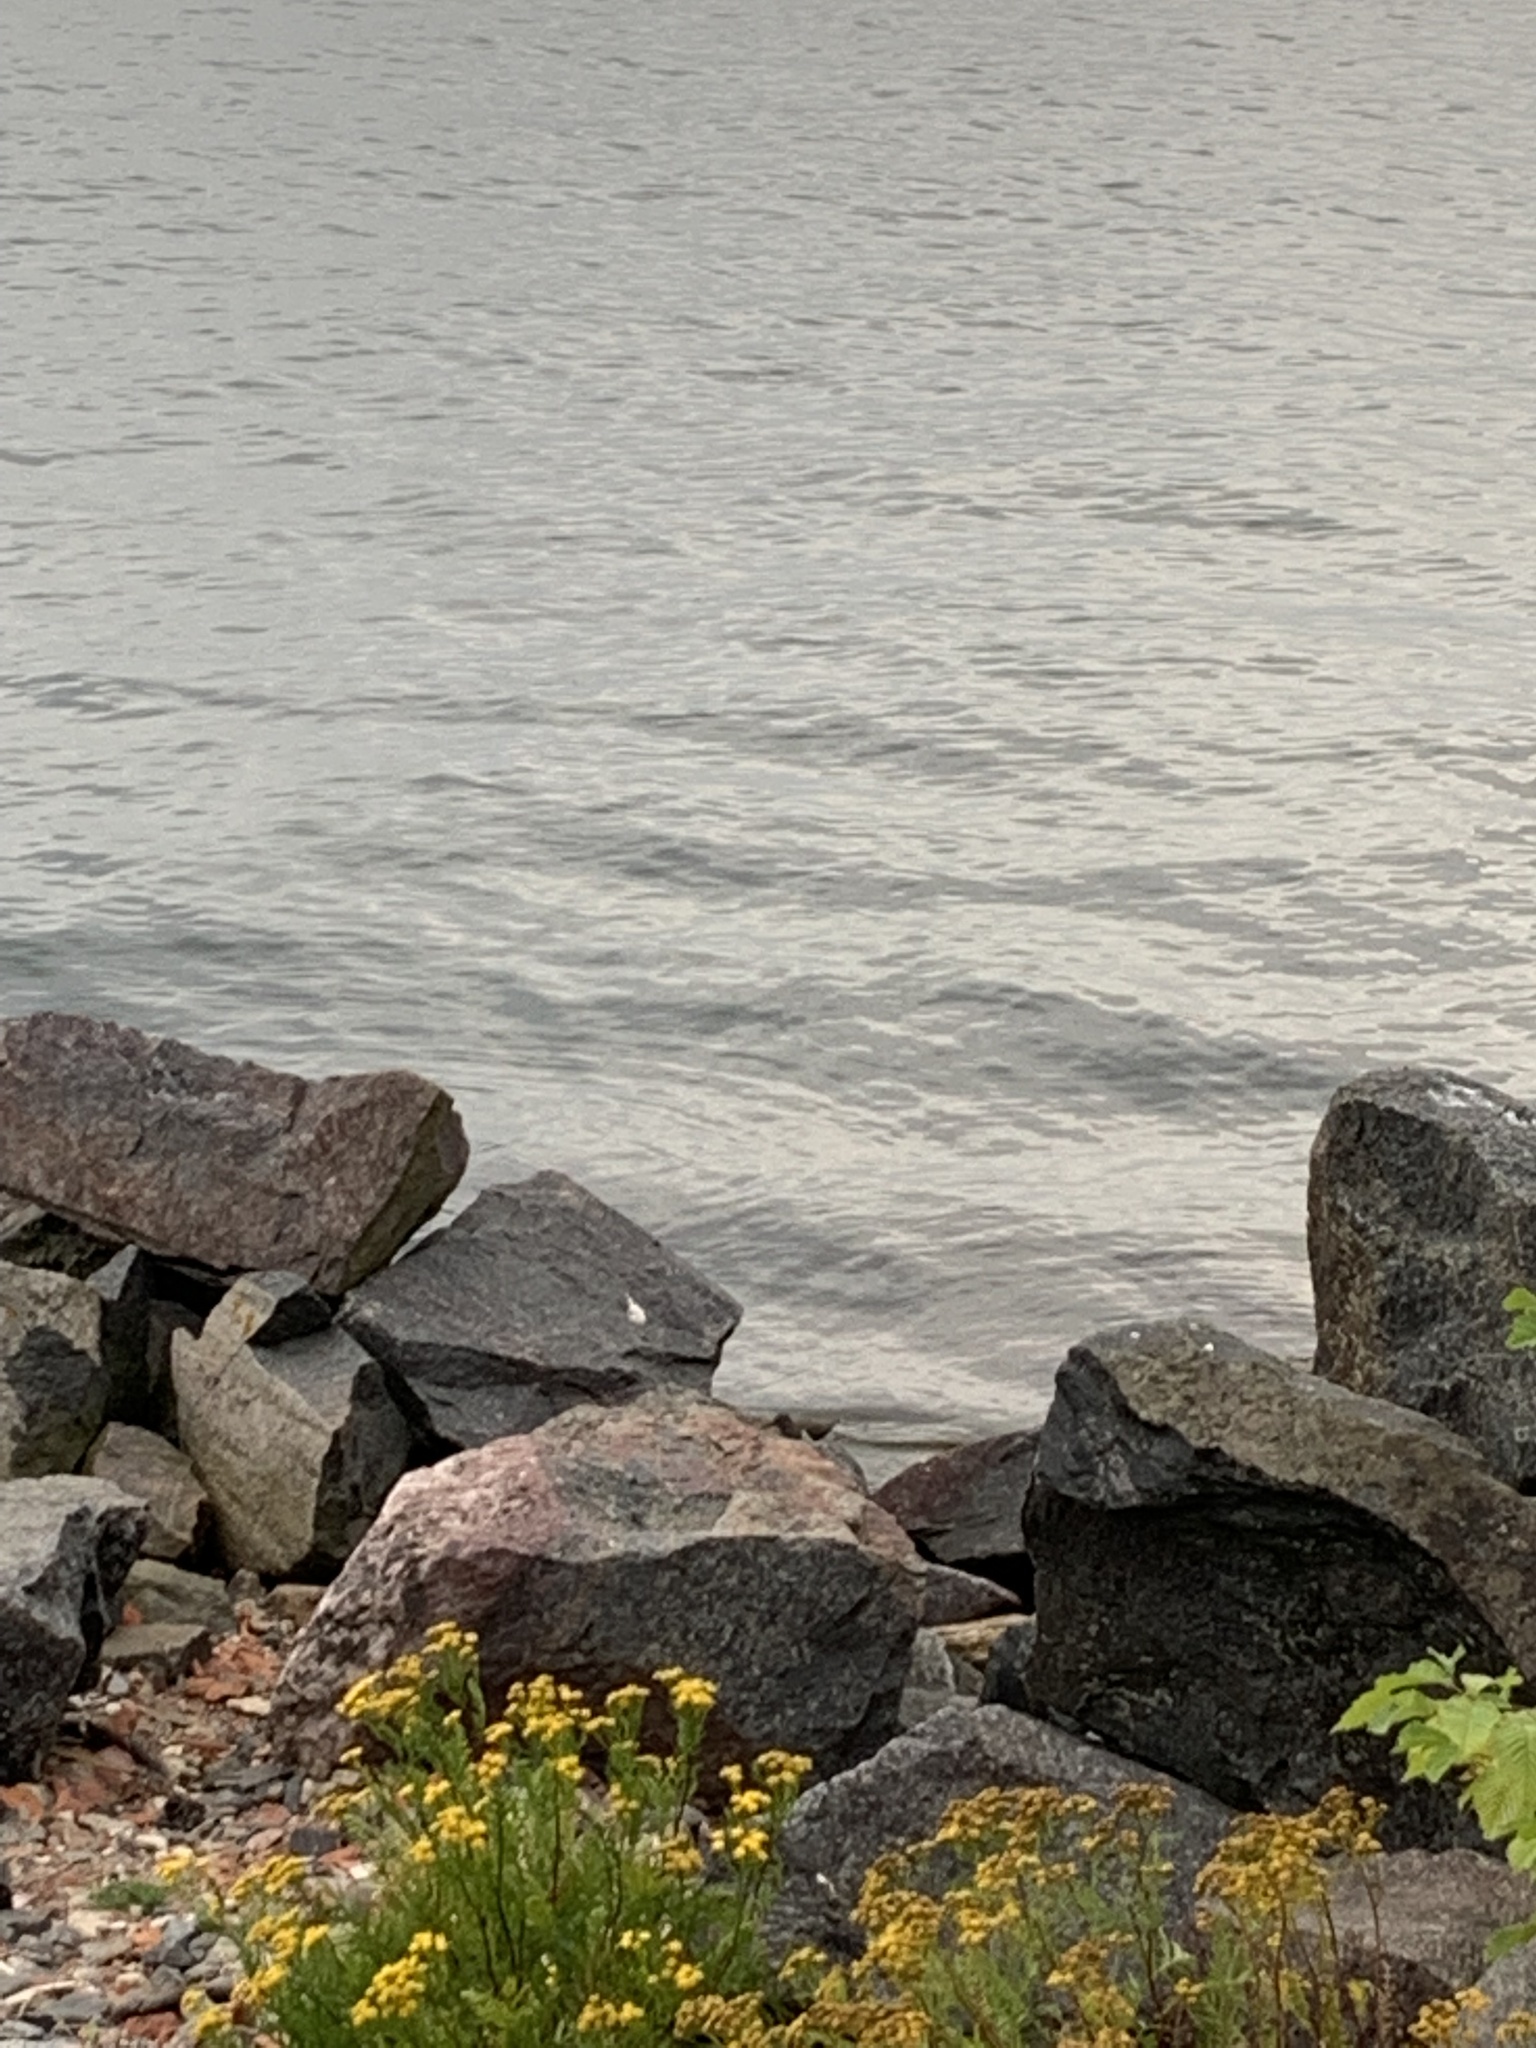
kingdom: Animalia
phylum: Chordata
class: Aves
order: Charadriiformes
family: Scolopacidae
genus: Actitis
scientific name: Actitis hypoleucos
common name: Common sandpiper
